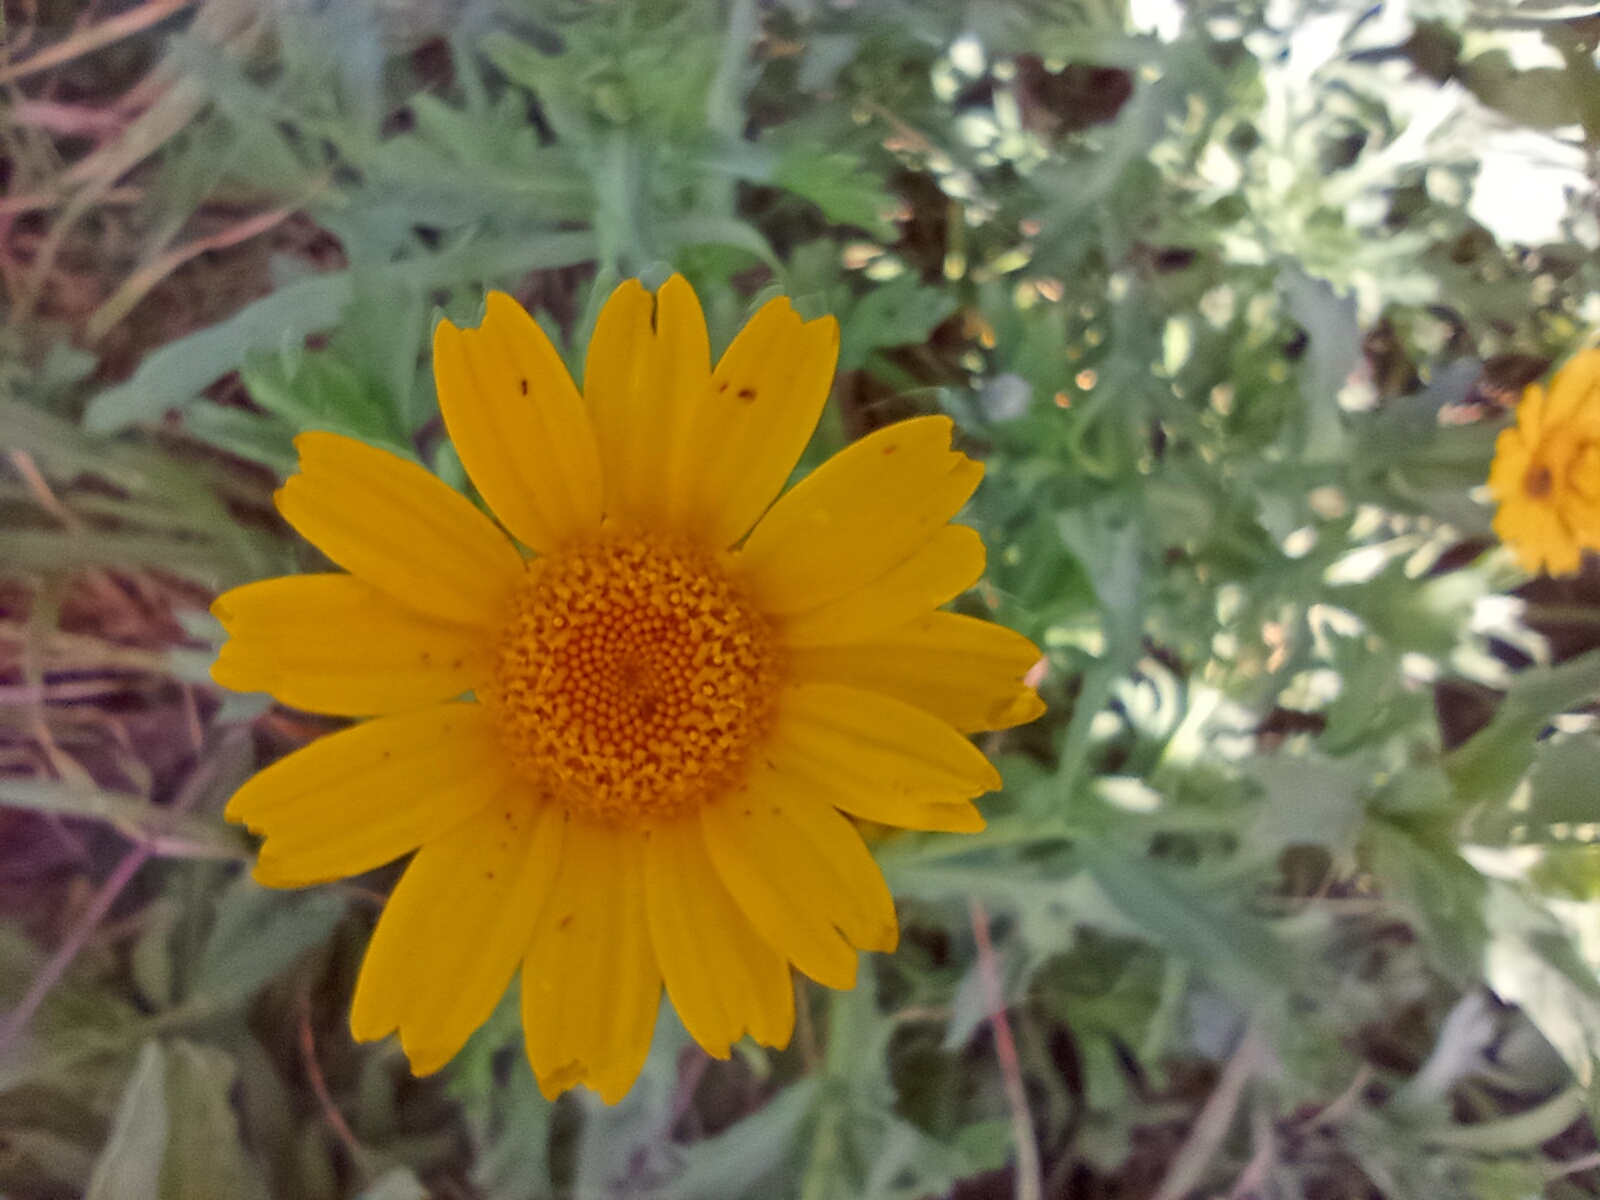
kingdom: Plantae
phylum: Tracheophyta
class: Magnoliopsida
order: Asterales
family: Asteraceae
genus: Glebionis
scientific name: Glebionis segetum
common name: Corndaisy
